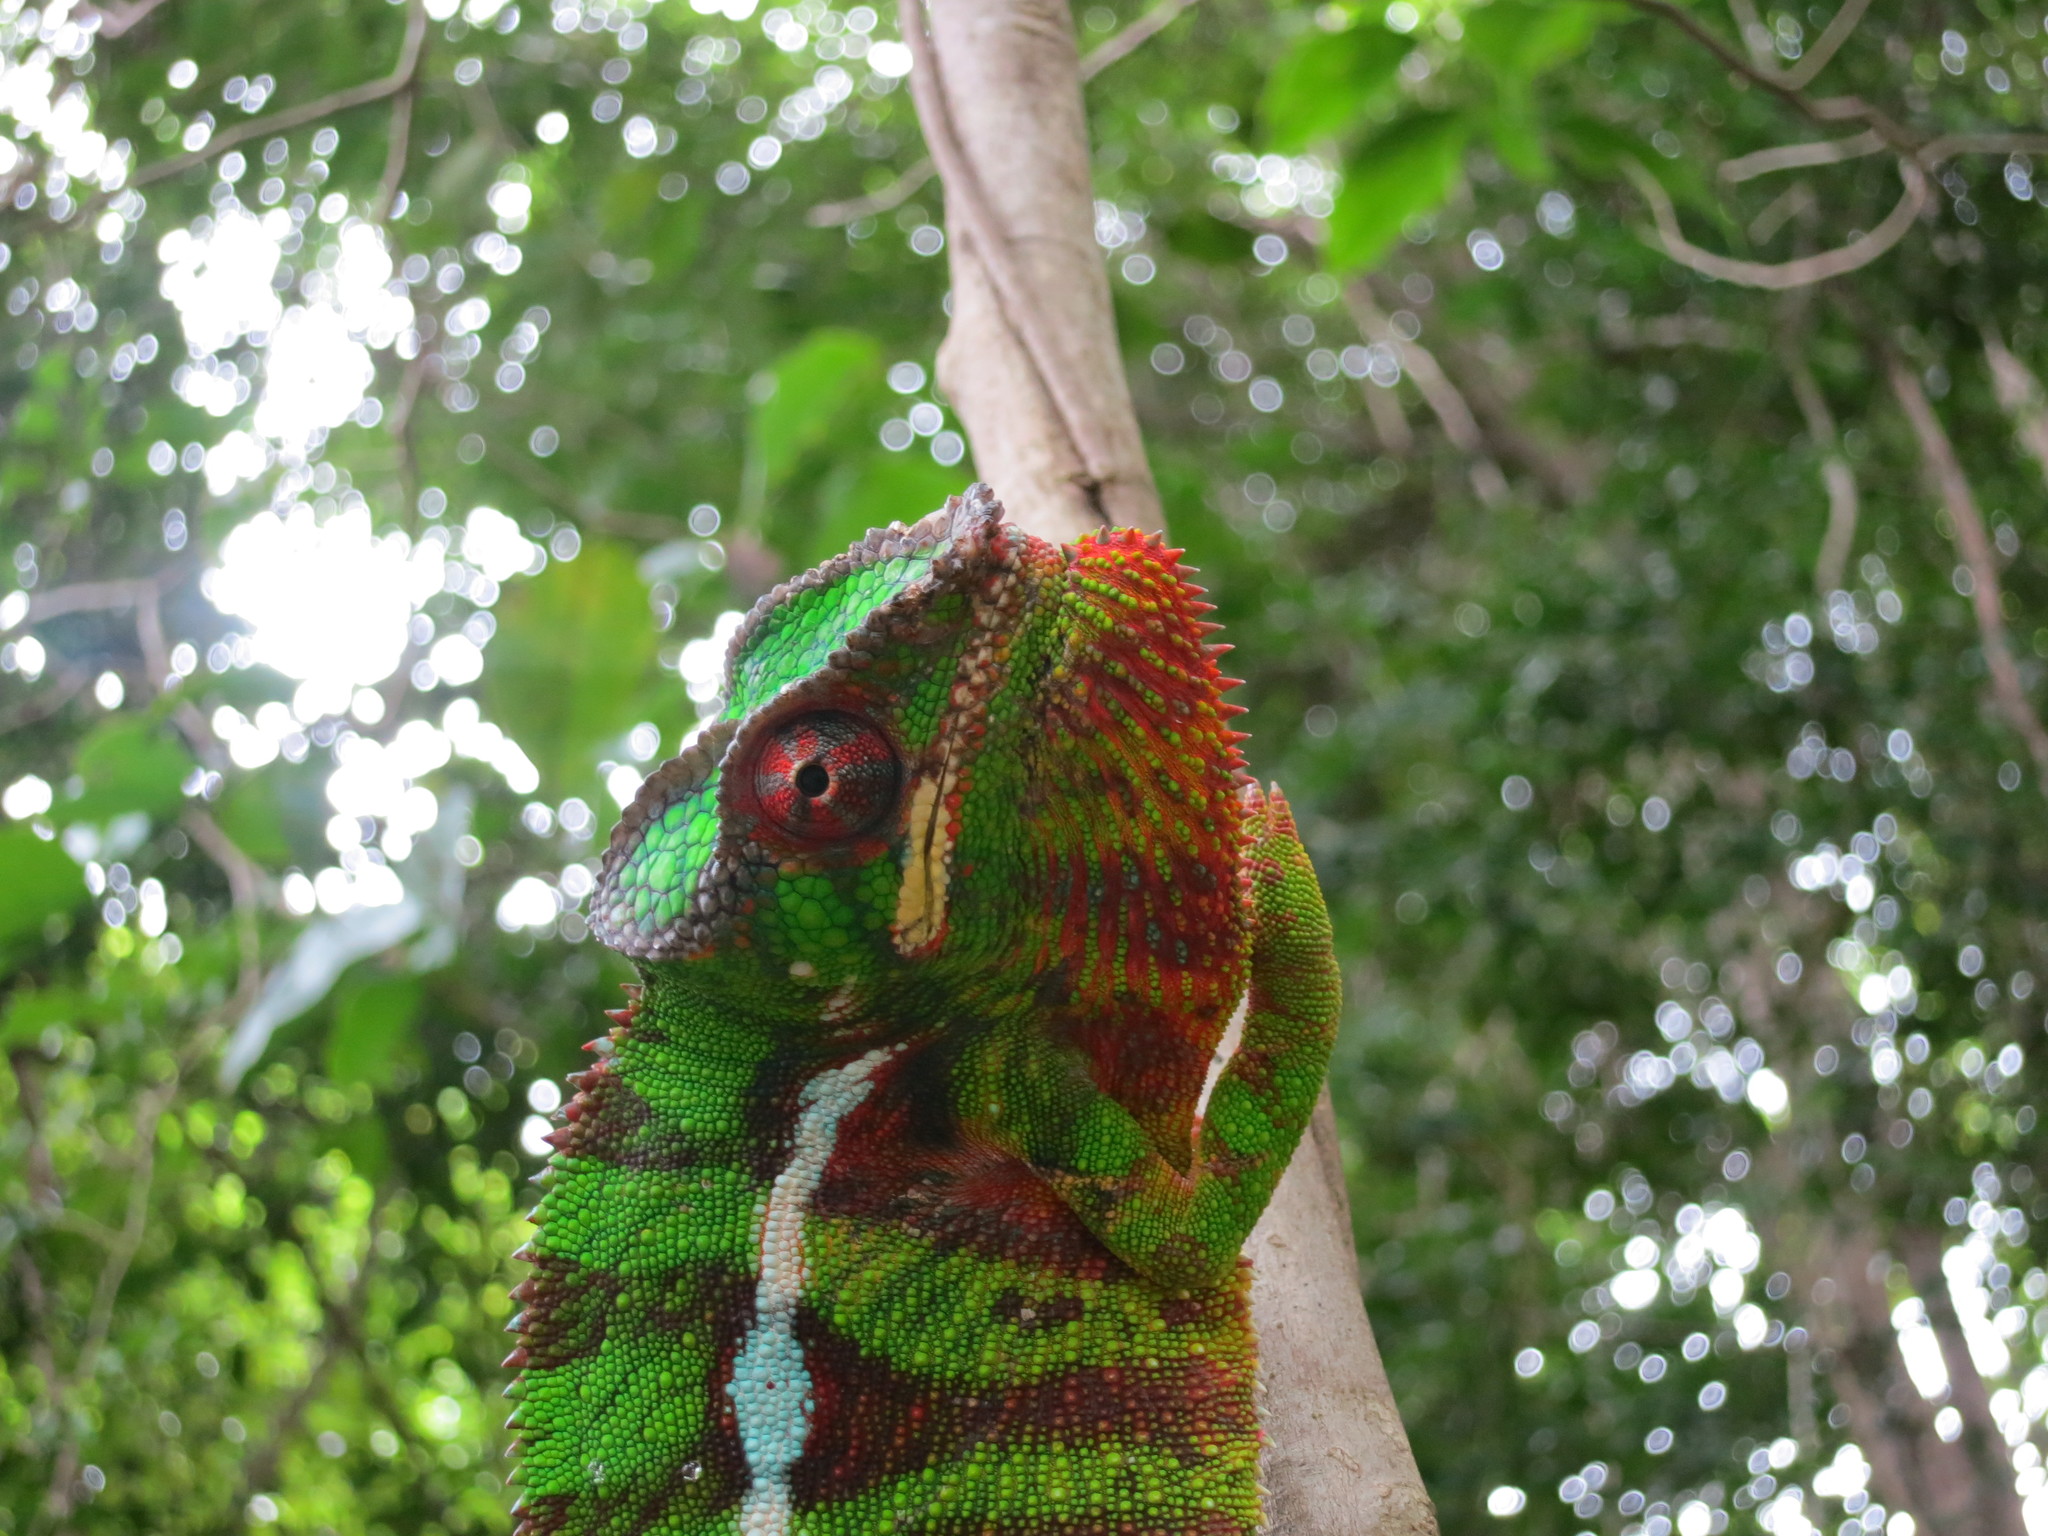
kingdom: Animalia
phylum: Chordata
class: Squamata
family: Chamaeleonidae
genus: Furcifer
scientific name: Furcifer pardalis
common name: Panther chameleon
